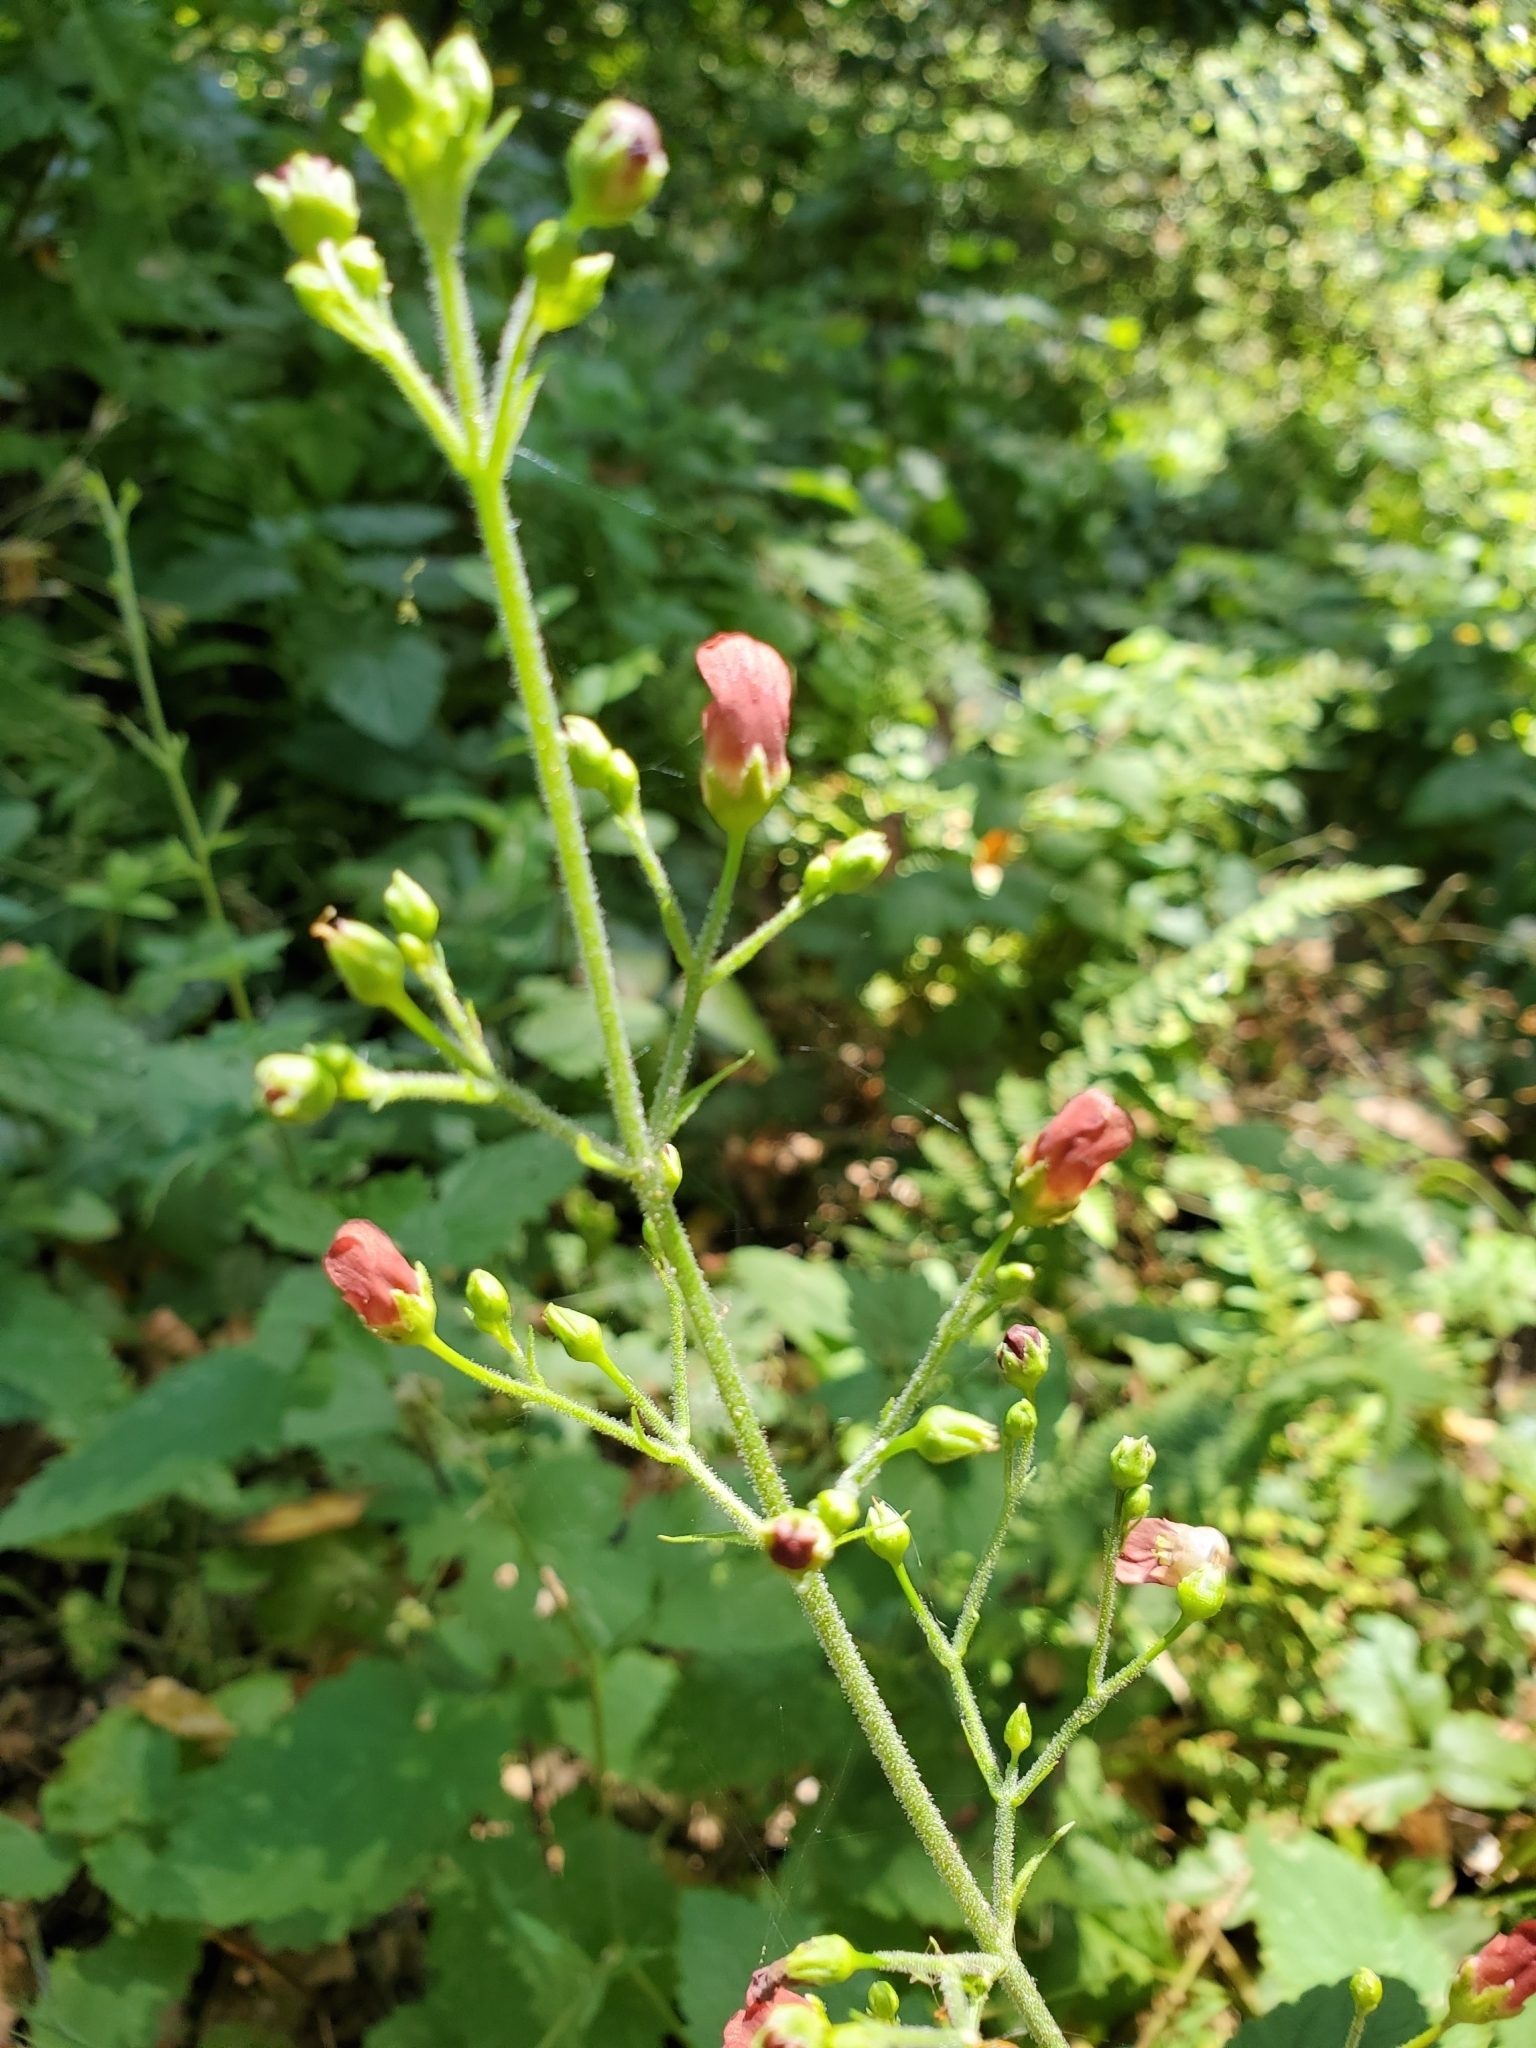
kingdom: Plantae
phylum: Tracheophyta
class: Magnoliopsida
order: Lamiales
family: Scrophulariaceae
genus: Scrophularia
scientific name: Scrophularia californica
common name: California figwort
